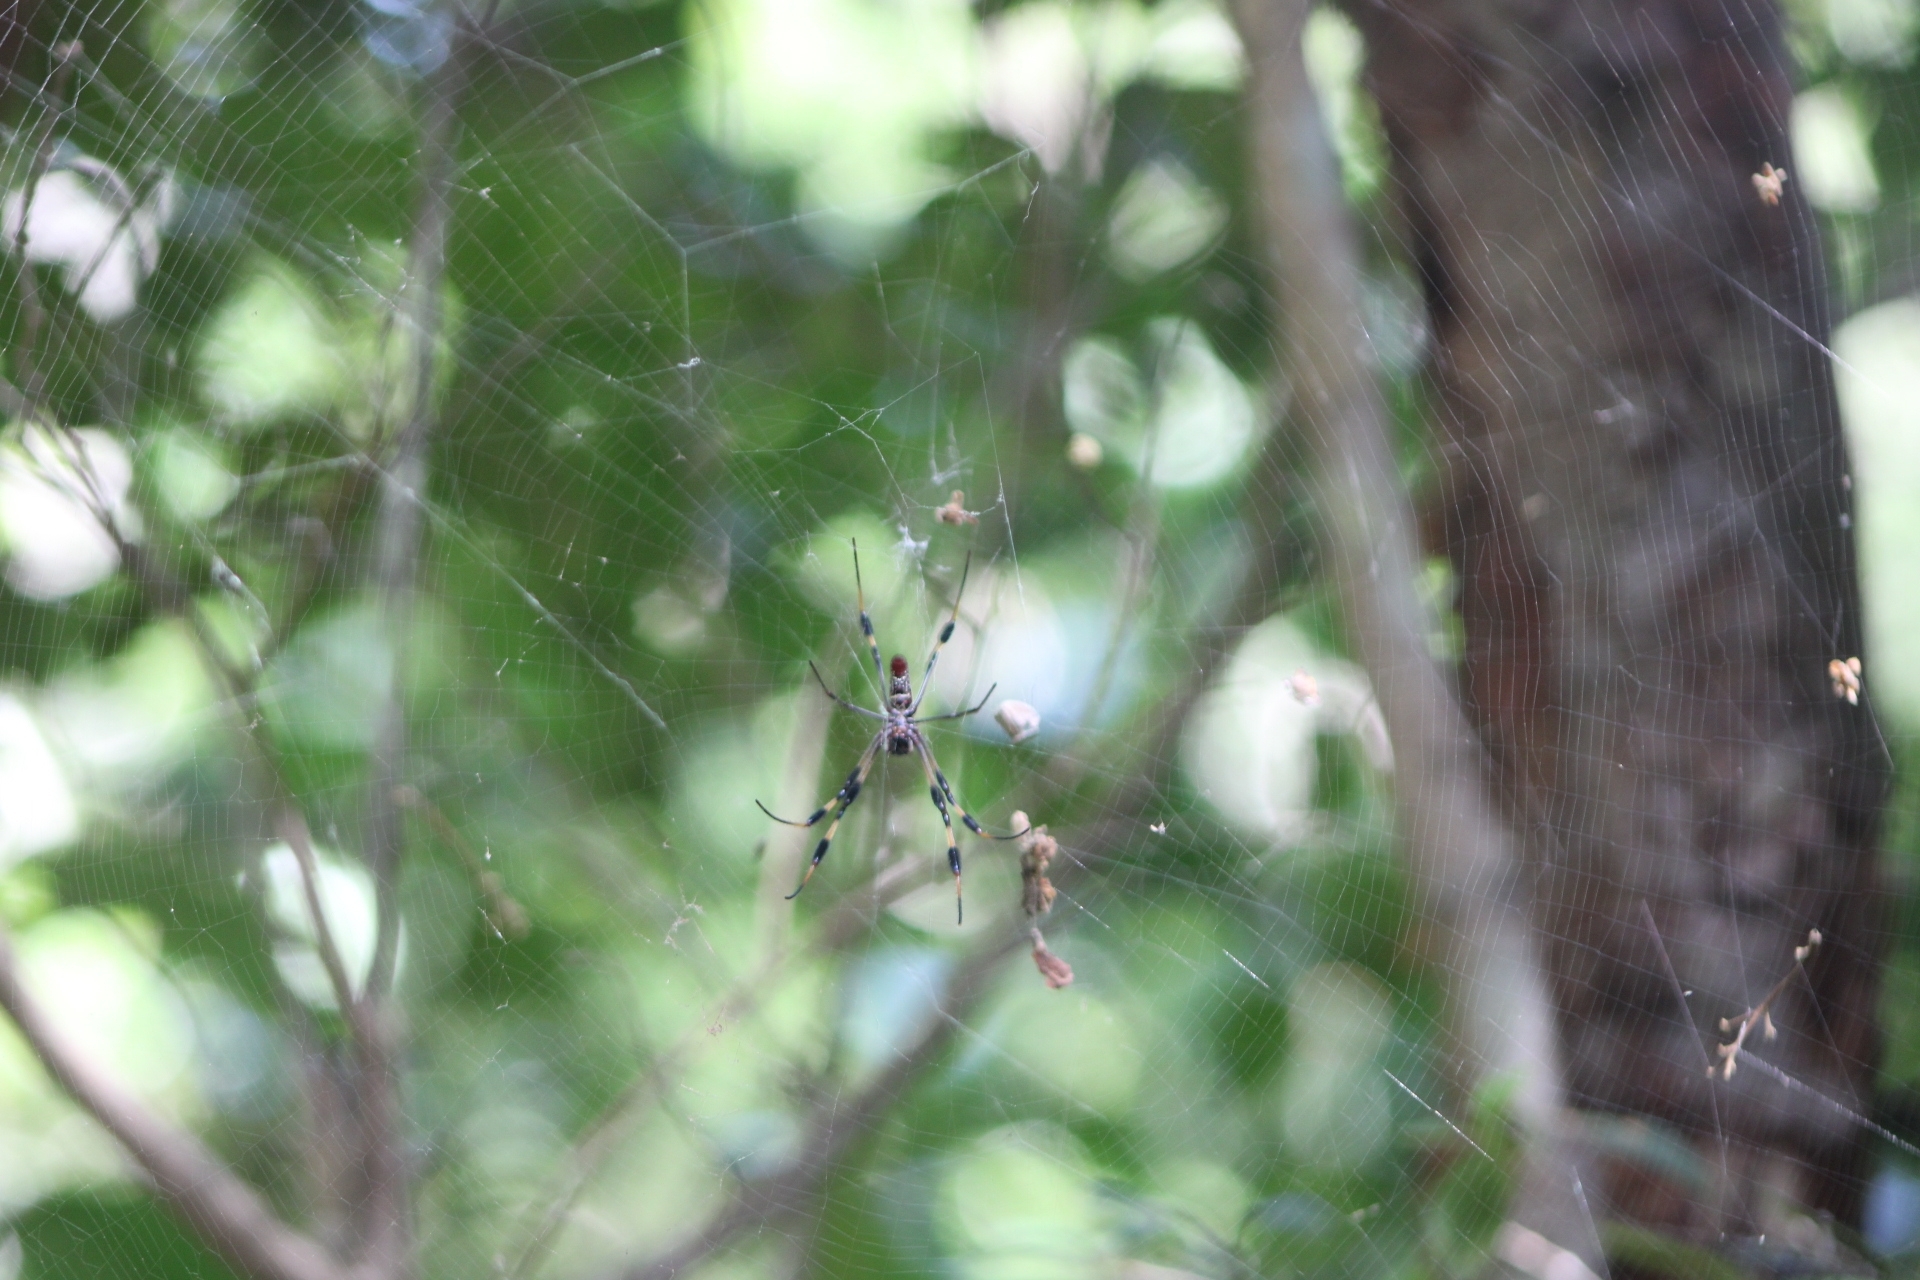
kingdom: Animalia
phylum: Arthropoda
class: Arachnida
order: Araneae
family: Araneidae
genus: Trichonephila
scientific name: Trichonephila clavipes
